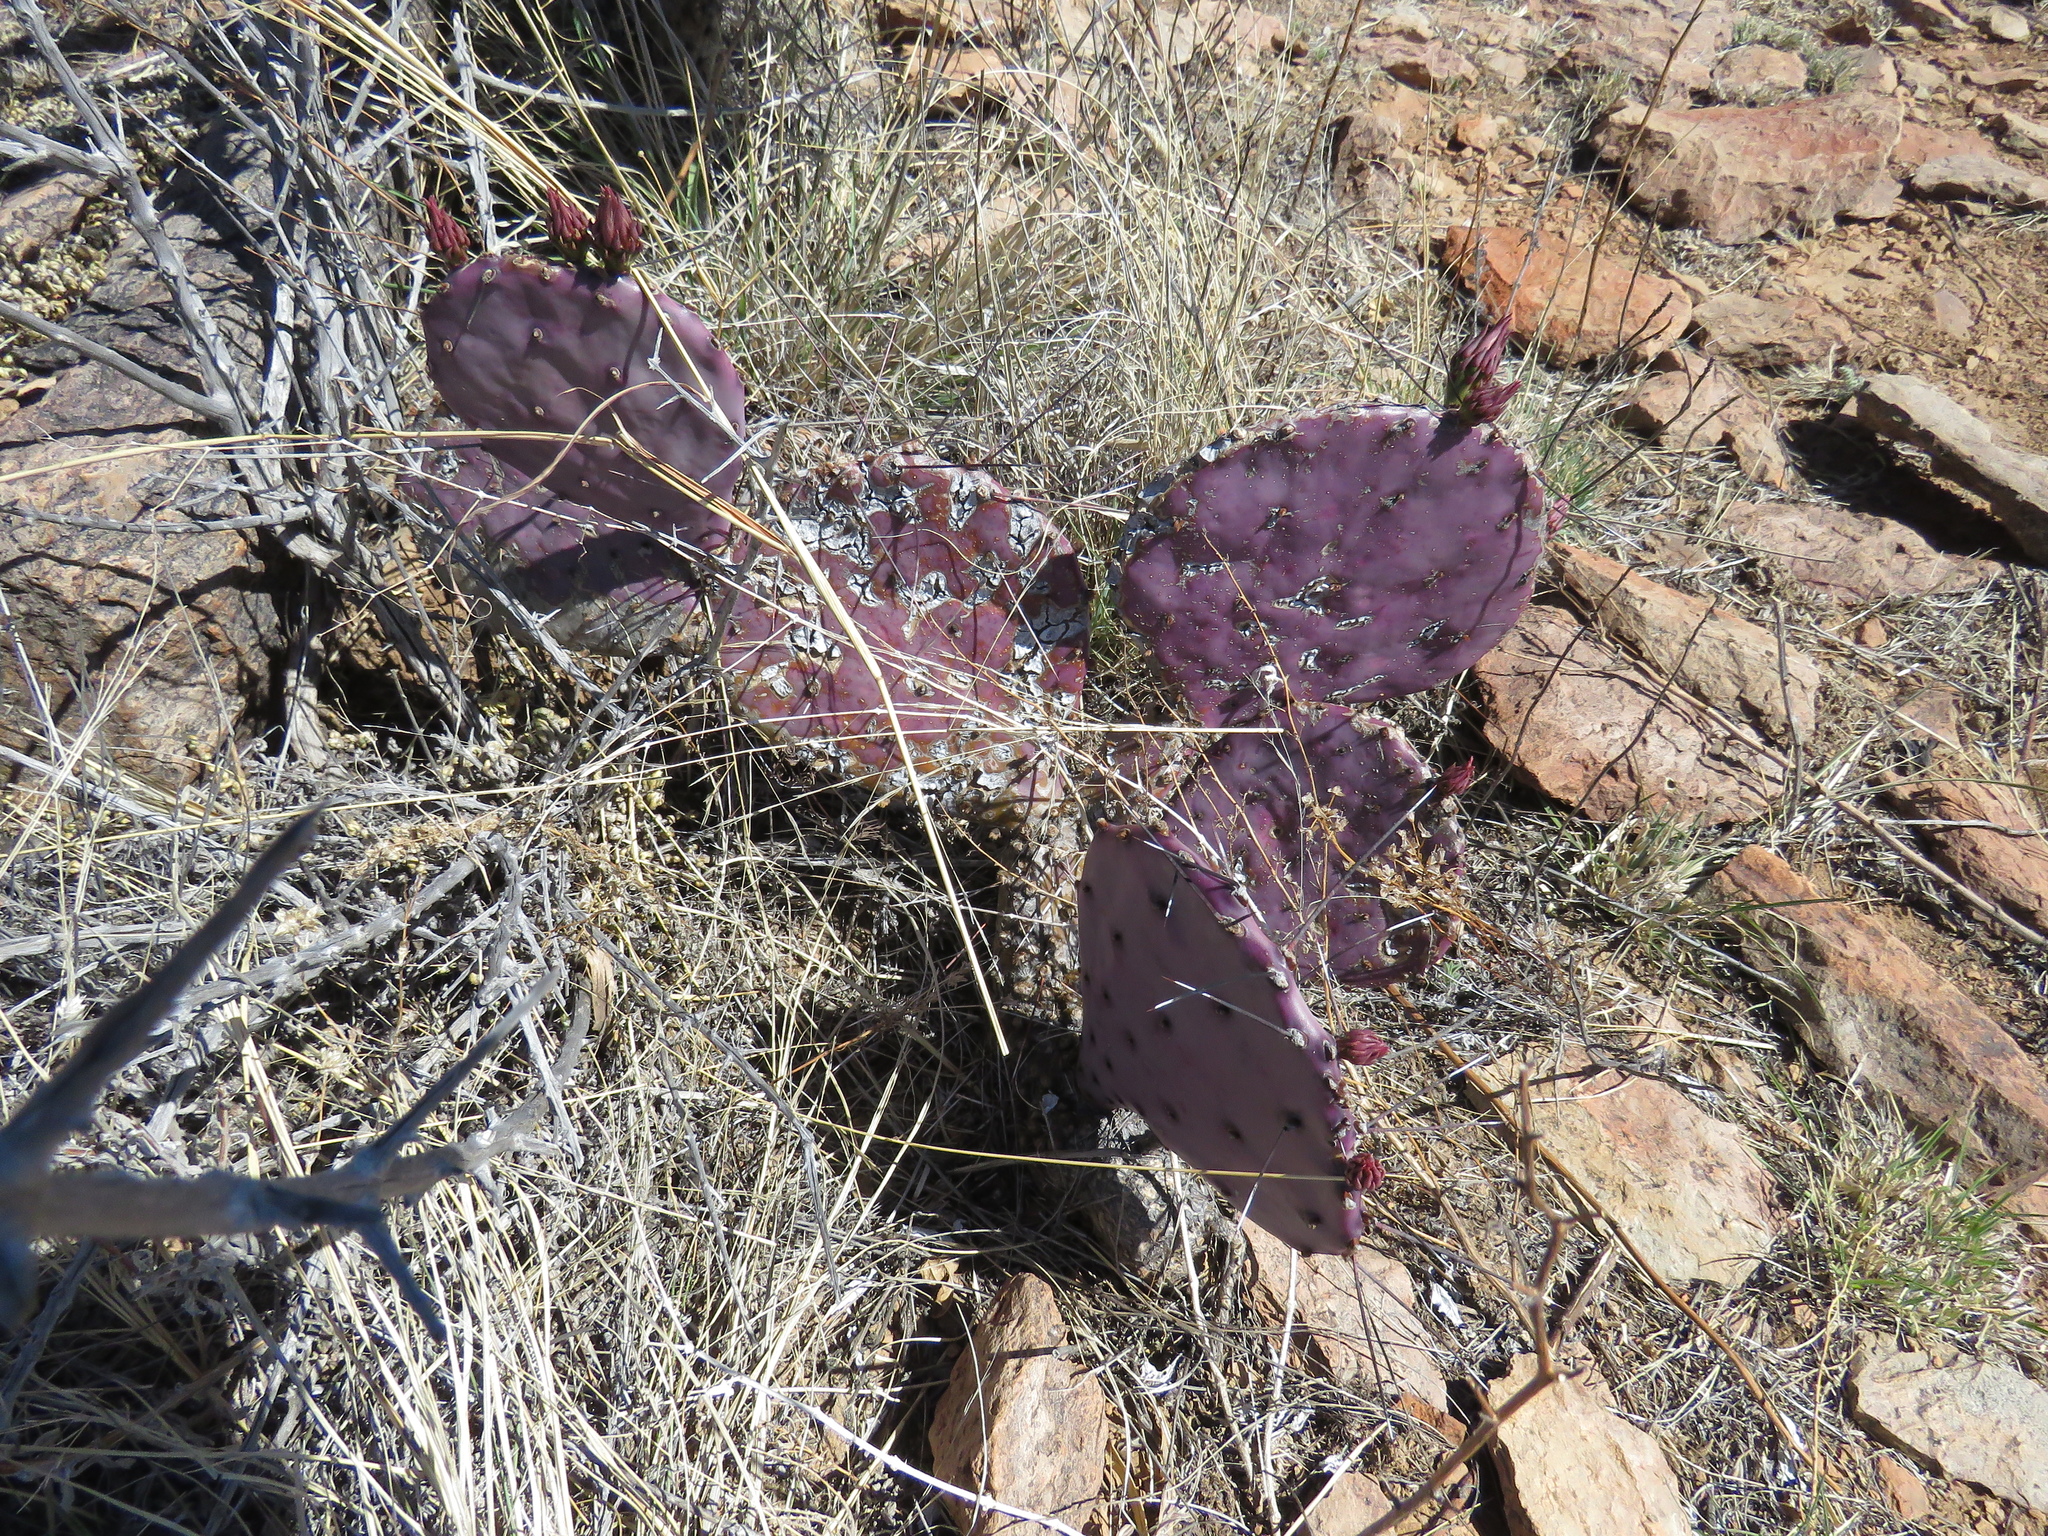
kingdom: Plantae
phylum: Tracheophyta
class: Magnoliopsida
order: Caryophyllales
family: Cactaceae
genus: Opuntia
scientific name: Opuntia phaeacantha
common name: New mexico prickly-pear
